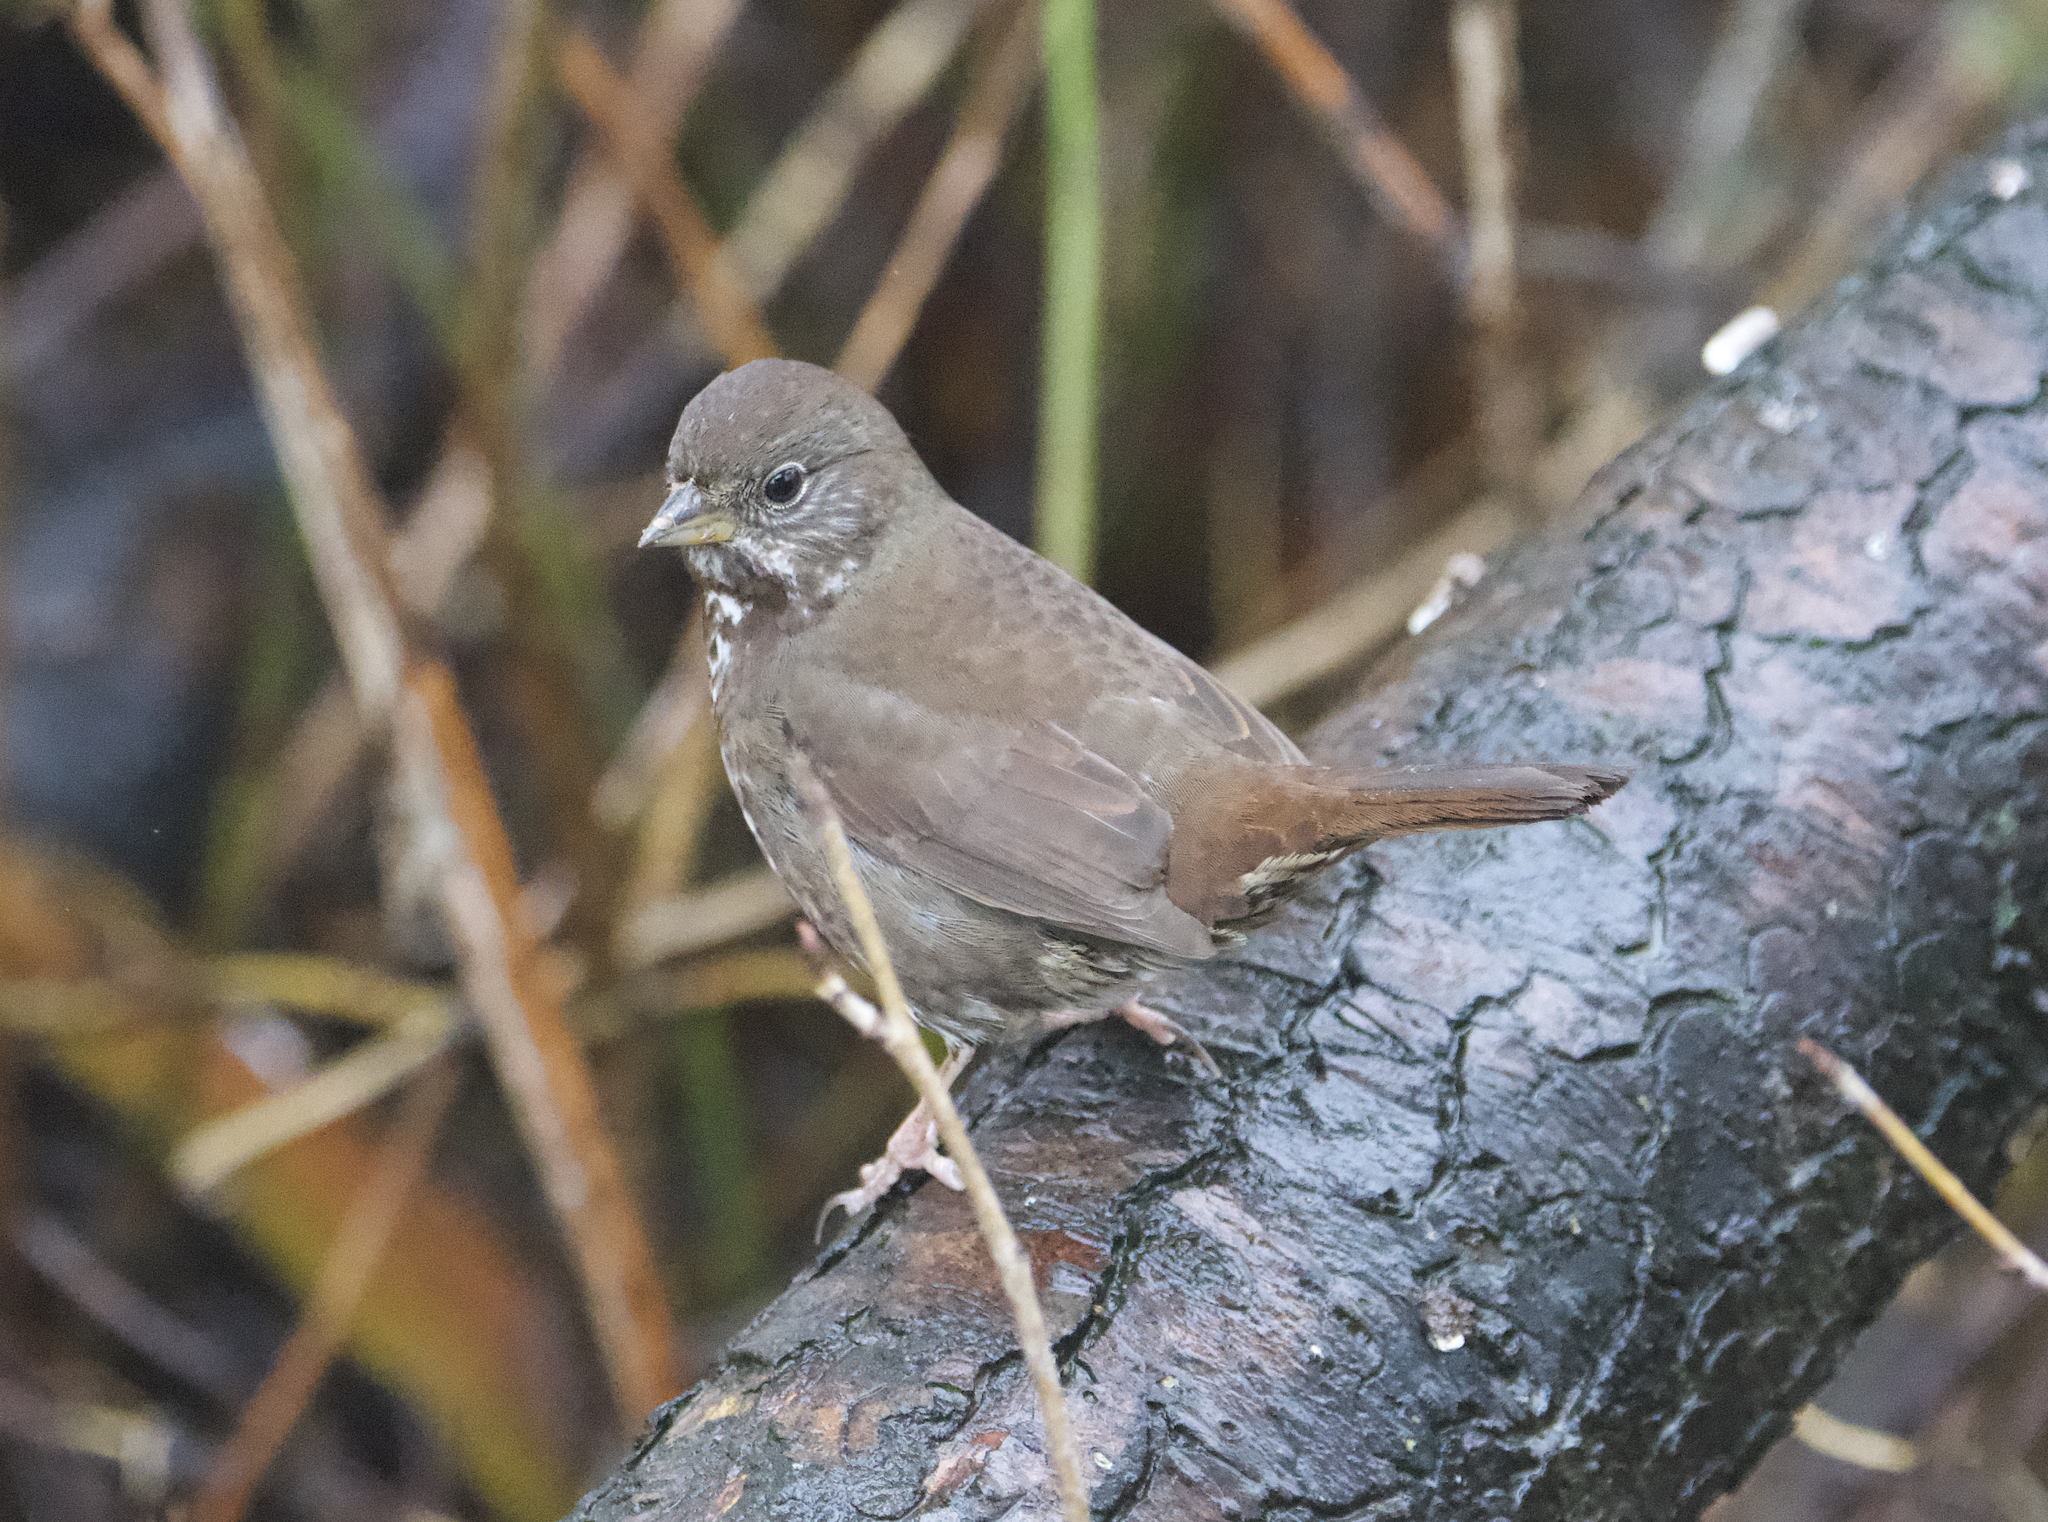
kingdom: Animalia
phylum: Chordata
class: Aves
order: Passeriformes
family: Passerellidae
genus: Passerella
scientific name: Passerella iliaca
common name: Fox sparrow
